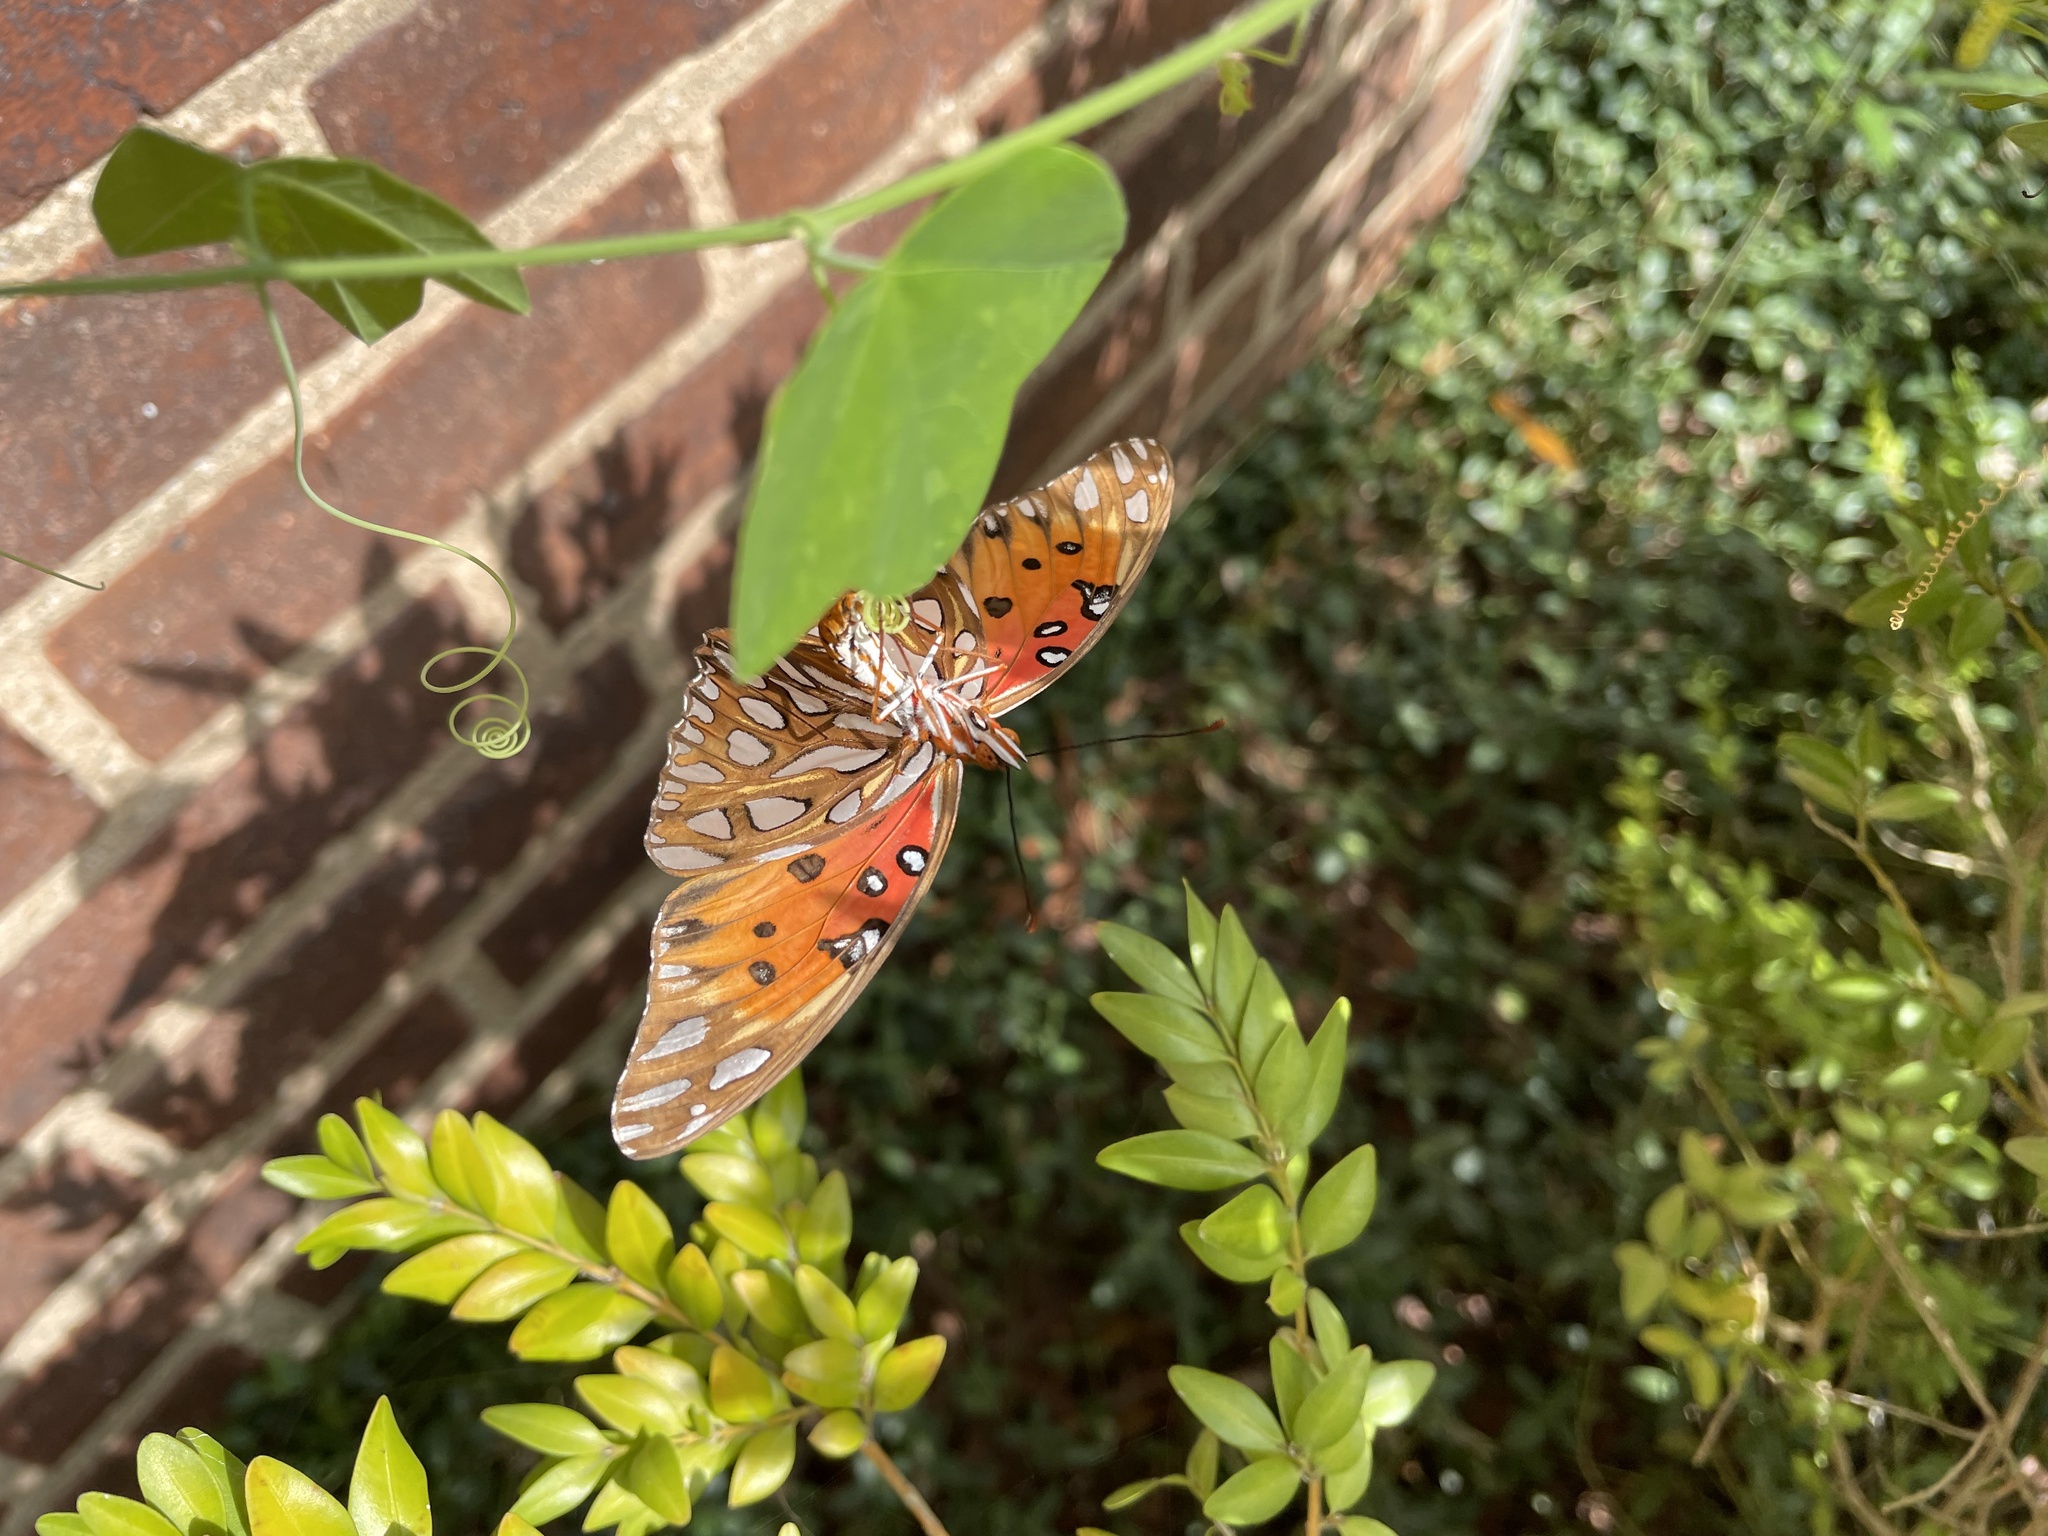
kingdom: Animalia
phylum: Arthropoda
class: Insecta
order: Lepidoptera
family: Nymphalidae
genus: Dione
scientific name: Dione vanillae
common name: Gulf fritillary
